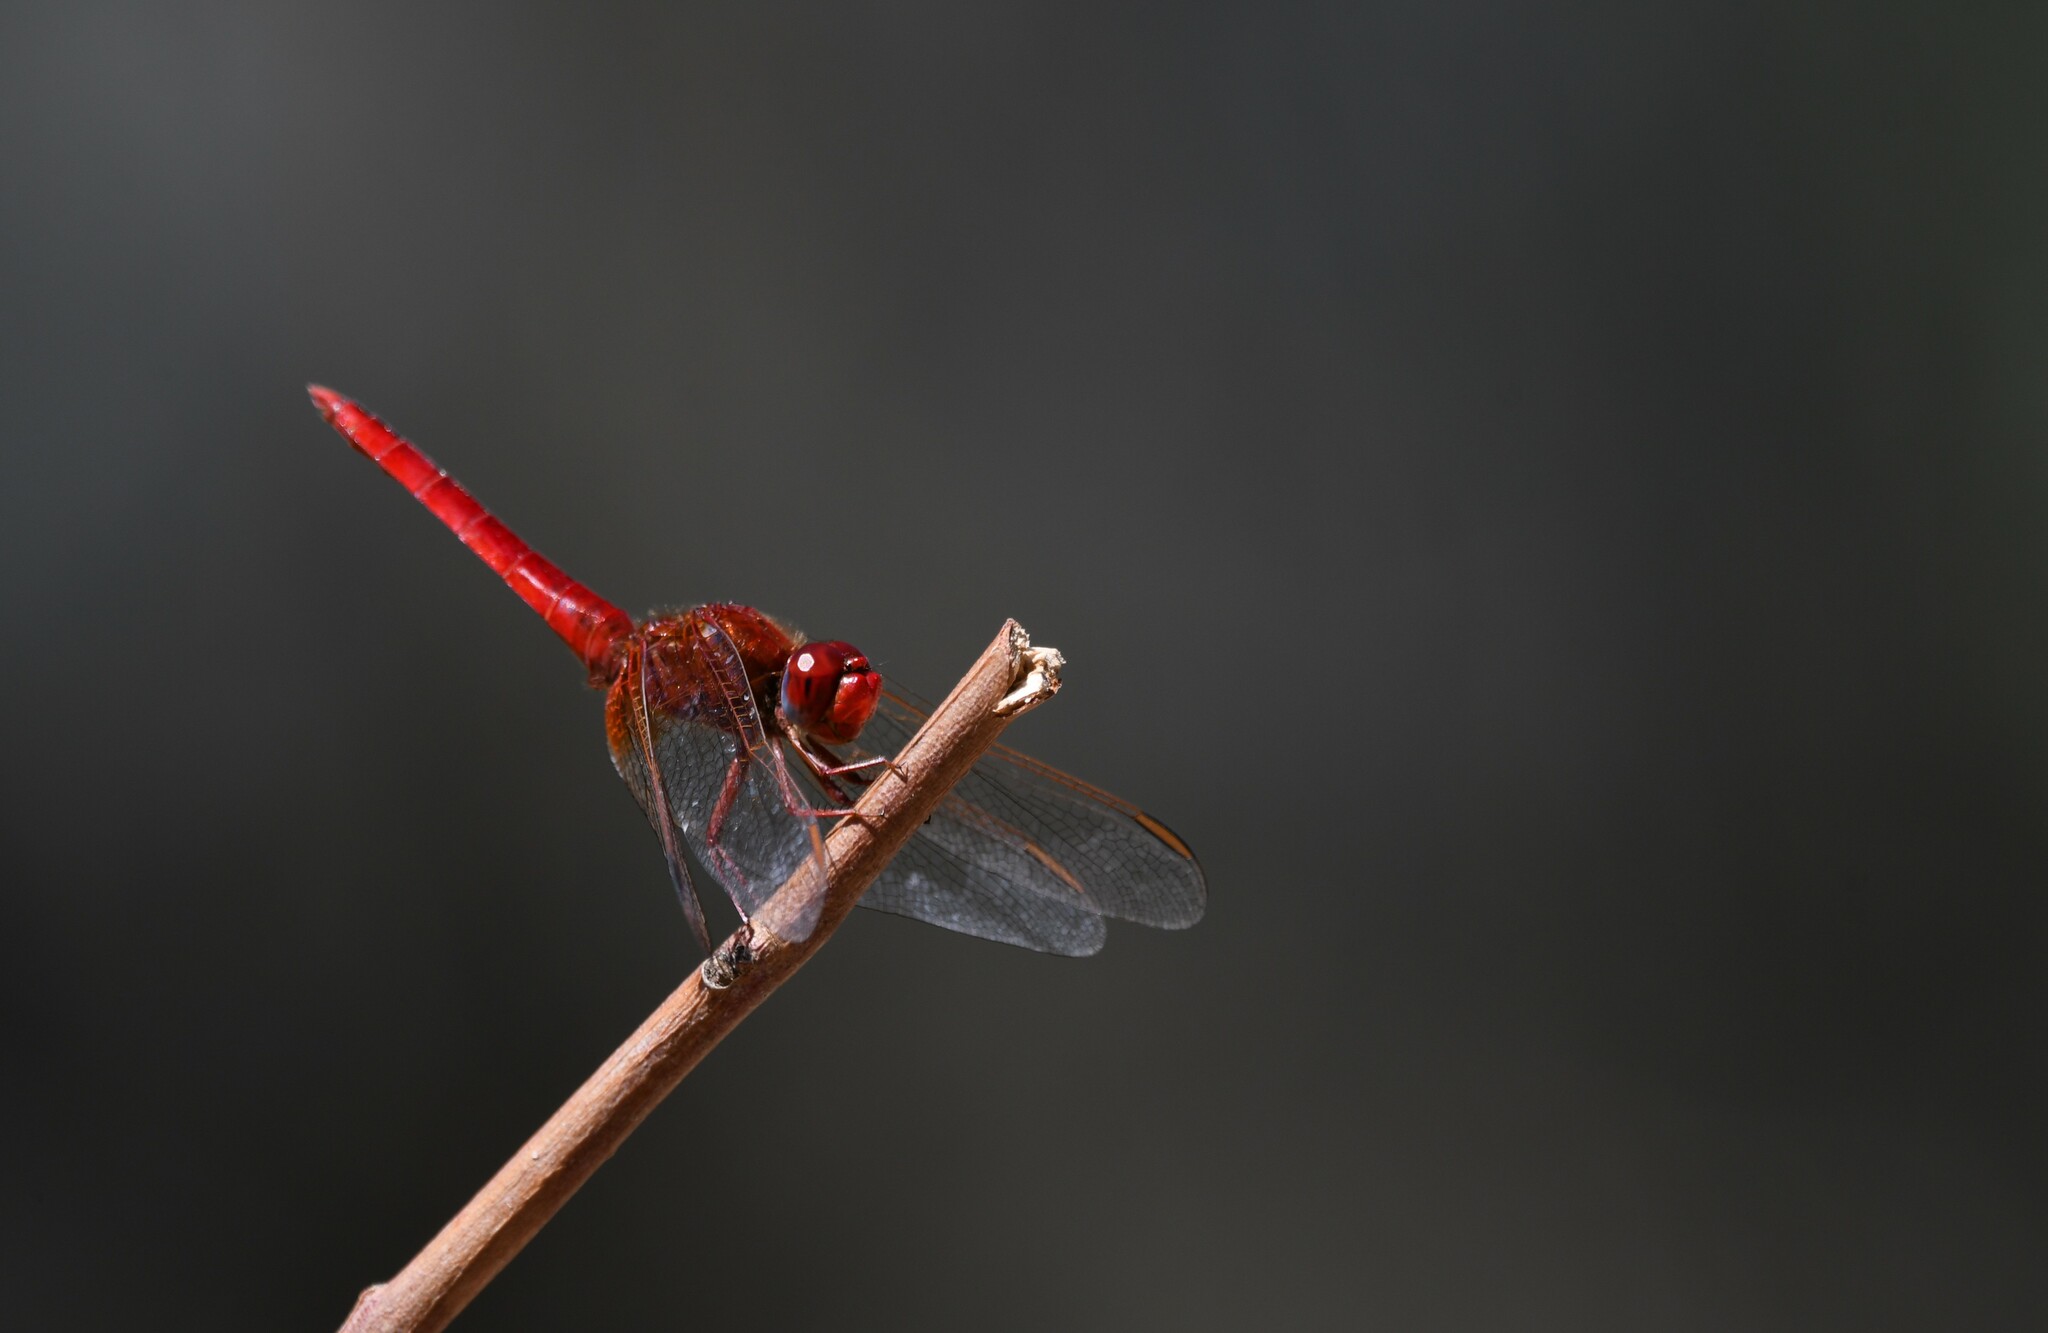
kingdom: Animalia
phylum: Arthropoda
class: Insecta
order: Odonata
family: Libellulidae
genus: Crocothemis
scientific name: Crocothemis erythraea
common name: Scarlet dragonfly
